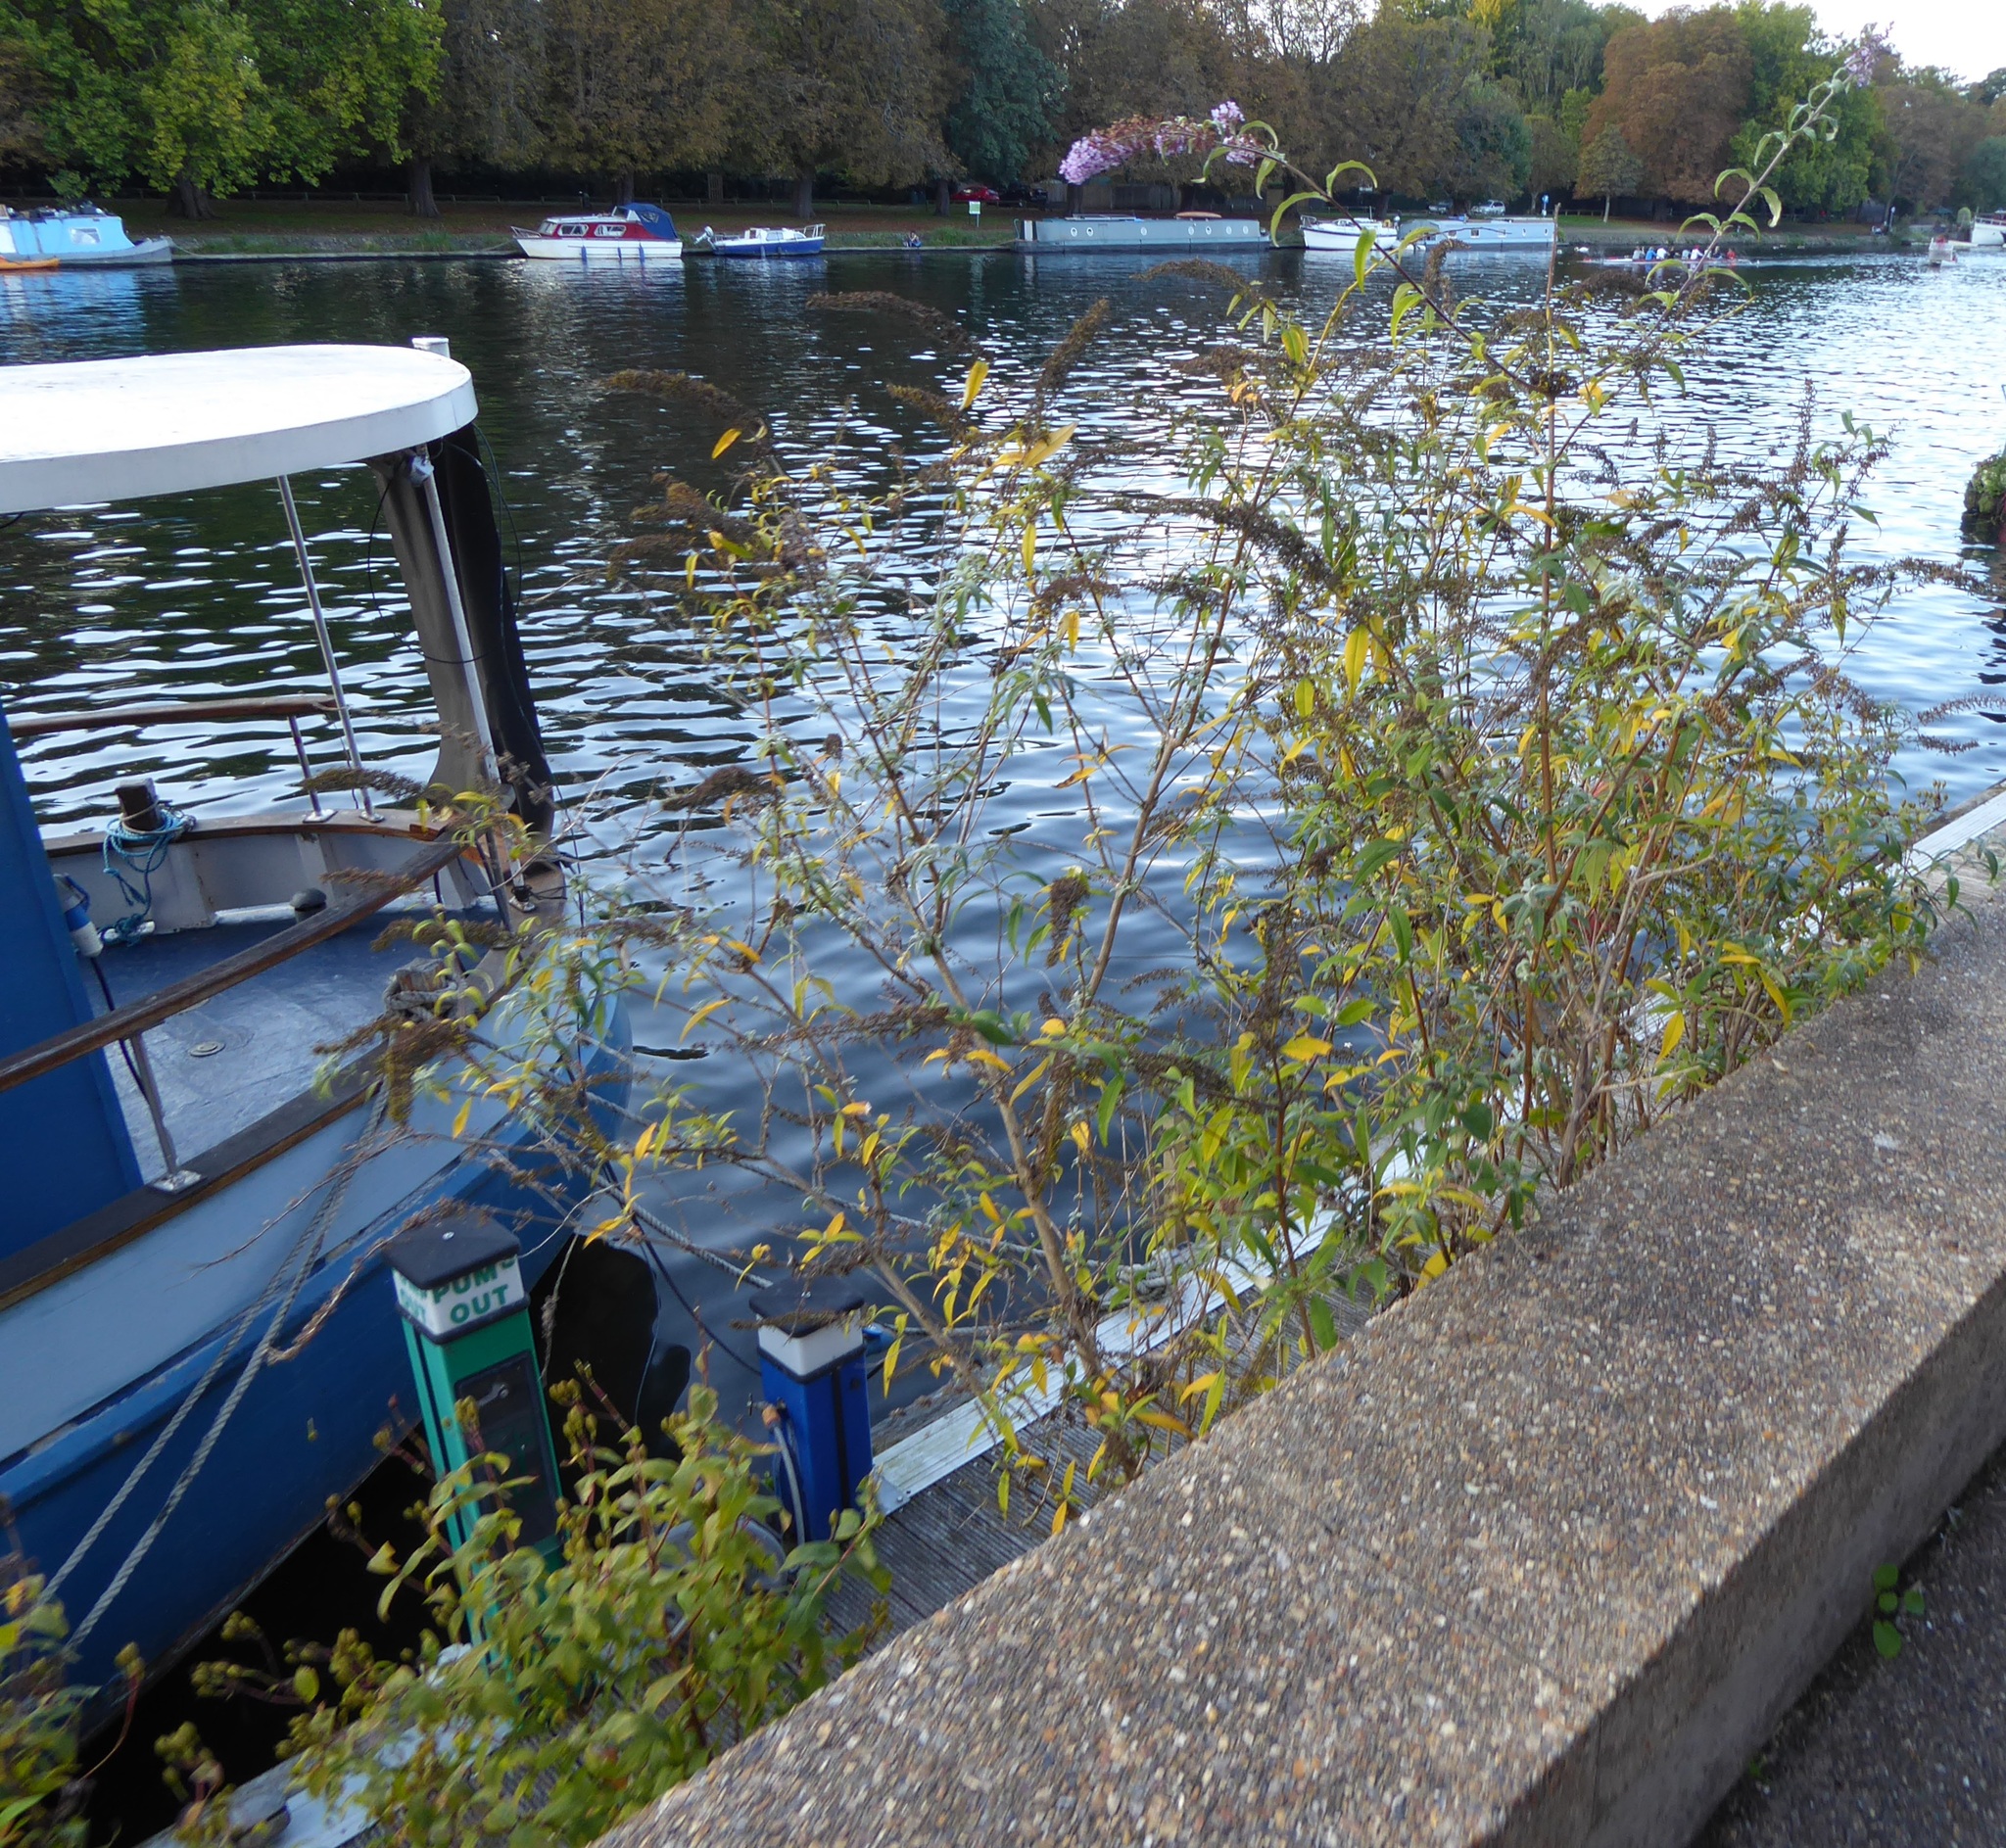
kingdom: Plantae
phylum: Tracheophyta
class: Magnoliopsida
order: Lamiales
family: Scrophulariaceae
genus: Buddleja
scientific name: Buddleja davidii
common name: Butterfly-bush
